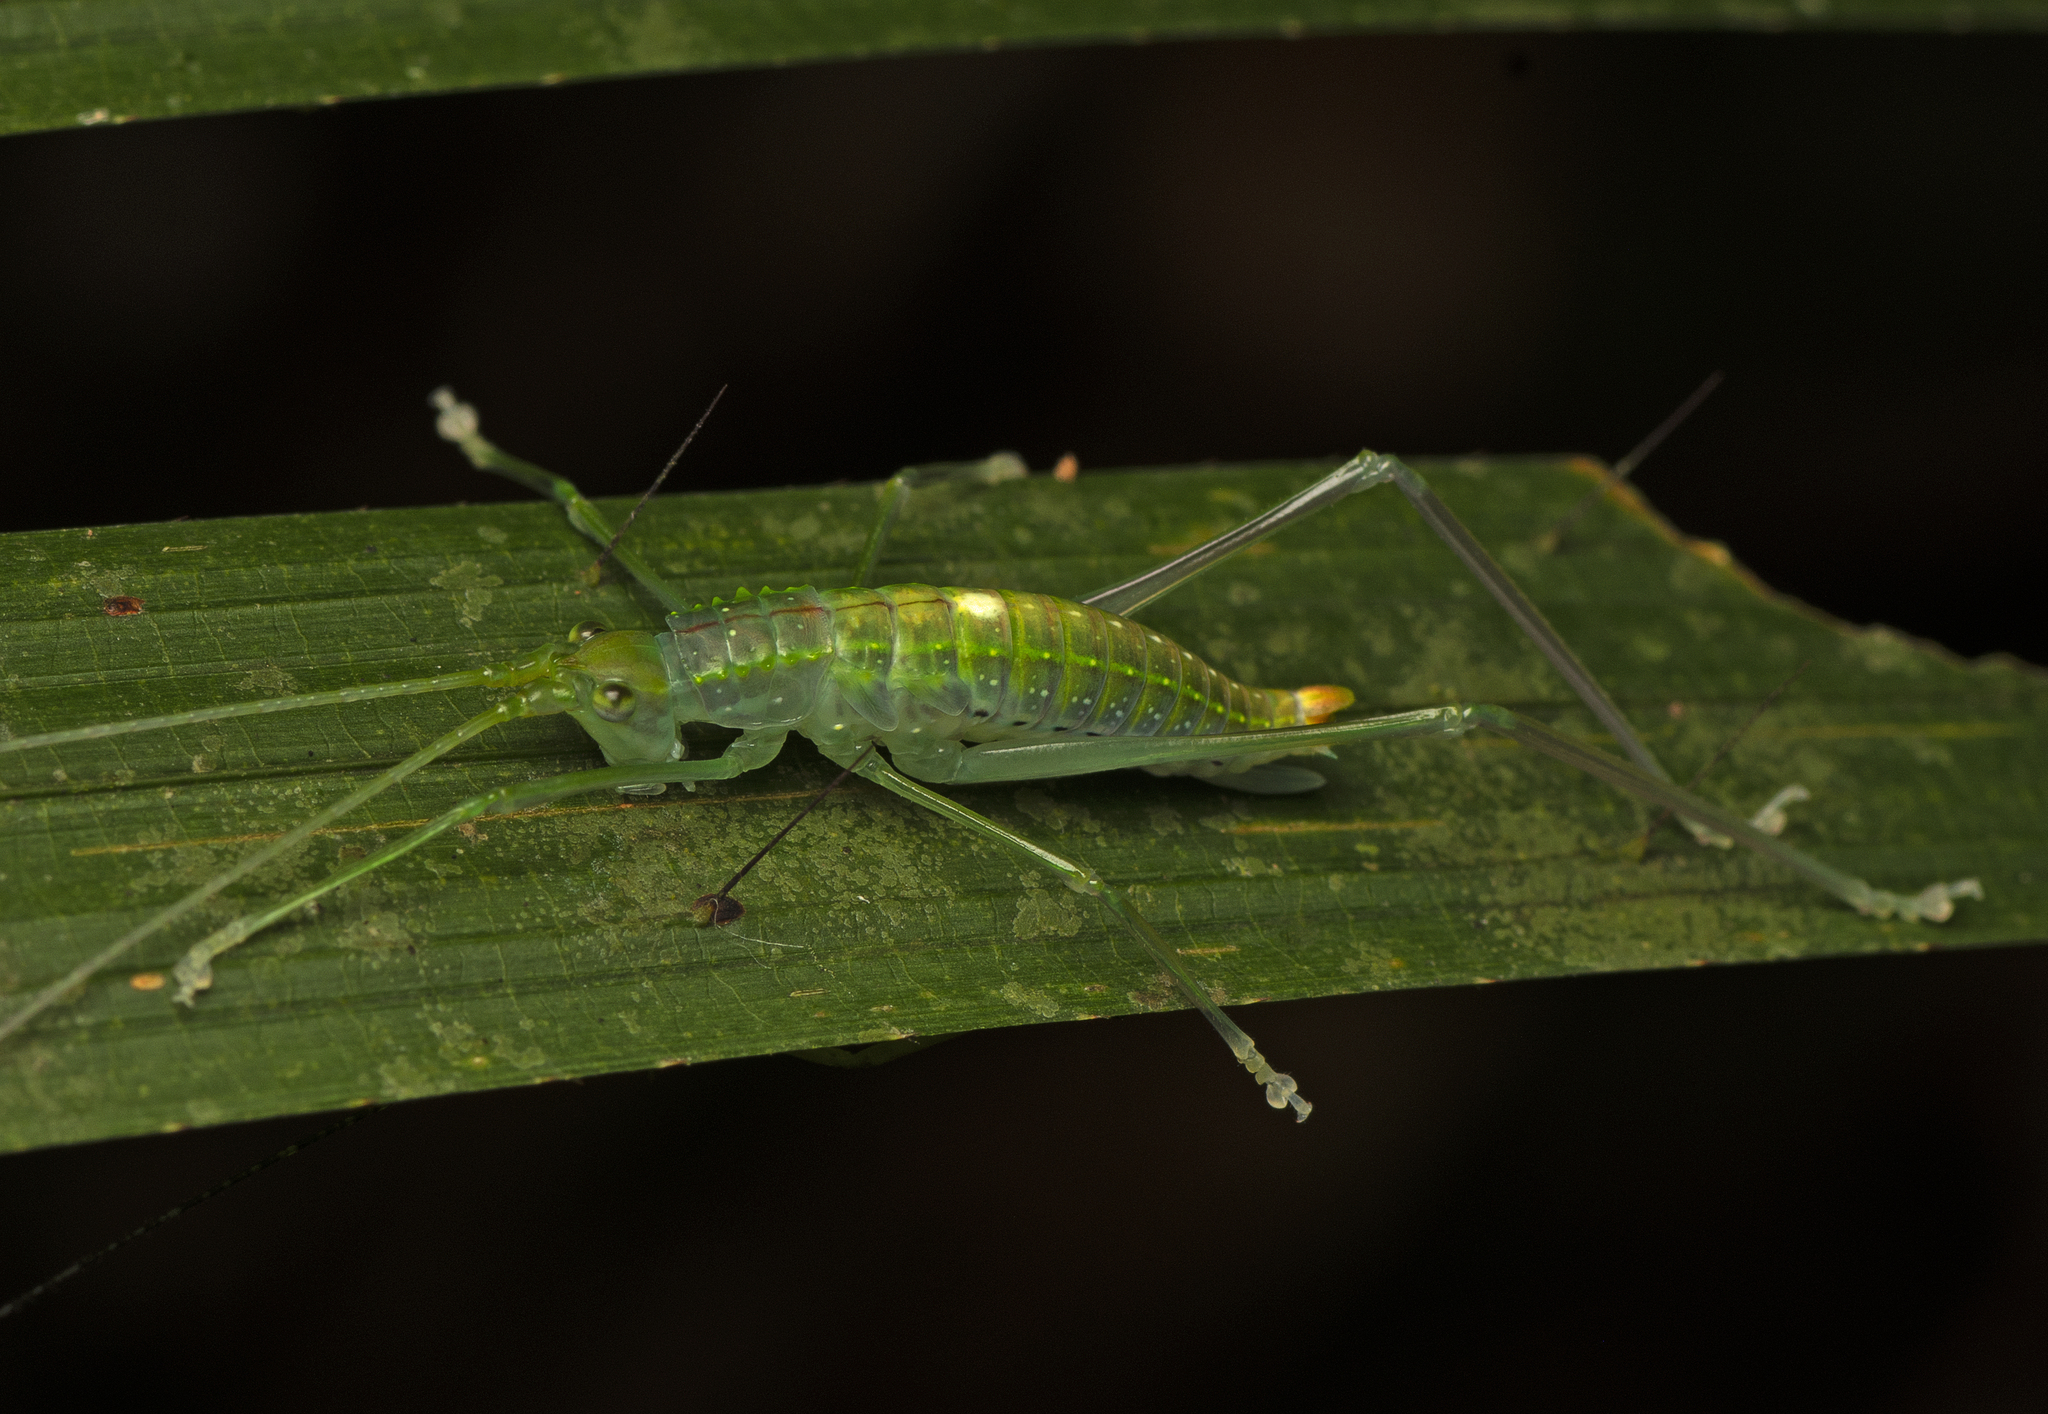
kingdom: Animalia
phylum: Arthropoda
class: Insecta
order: Orthoptera
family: Tettigoniidae
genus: Chloracantha
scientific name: Chloracantha lampra
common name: Delicate false-leaf katydid
